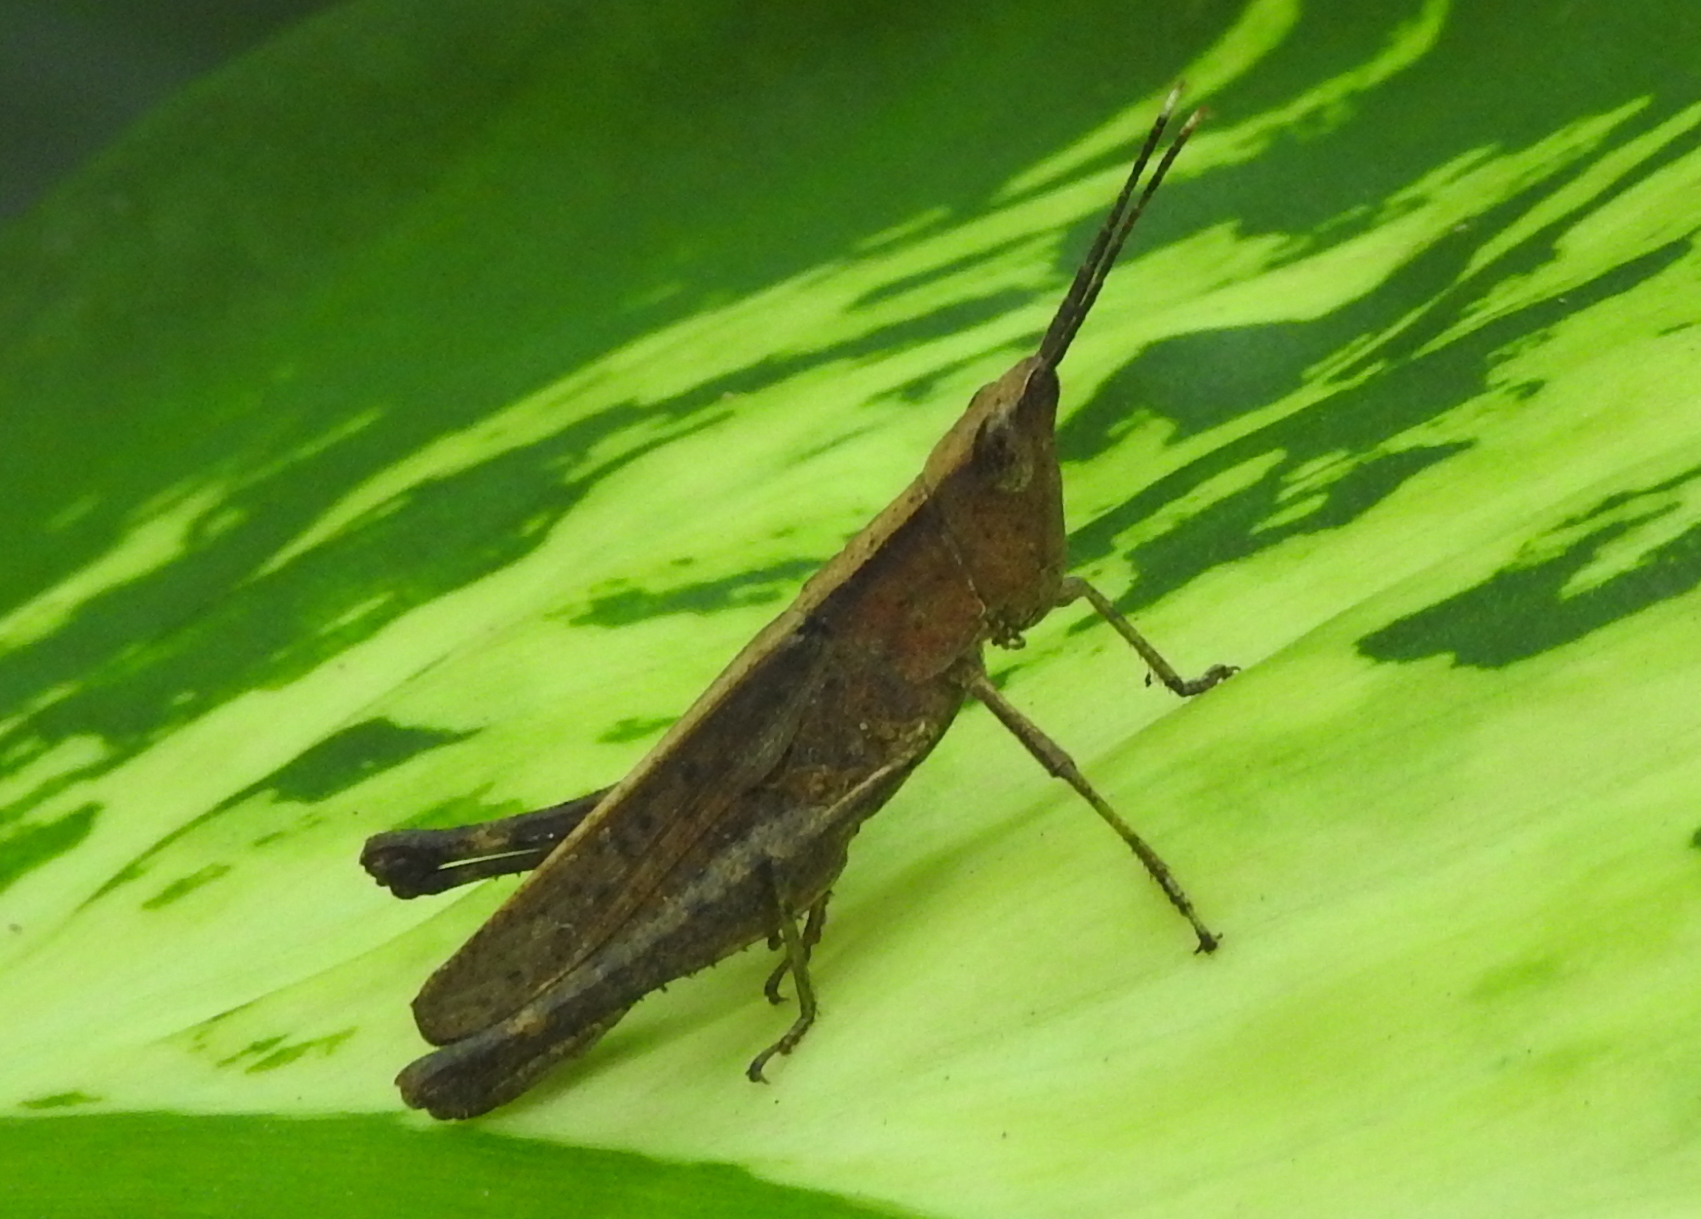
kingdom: Animalia
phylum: Arthropoda
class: Insecta
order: Orthoptera
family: Acrididae
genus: Phlaeoba
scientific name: Phlaeoba antennata
